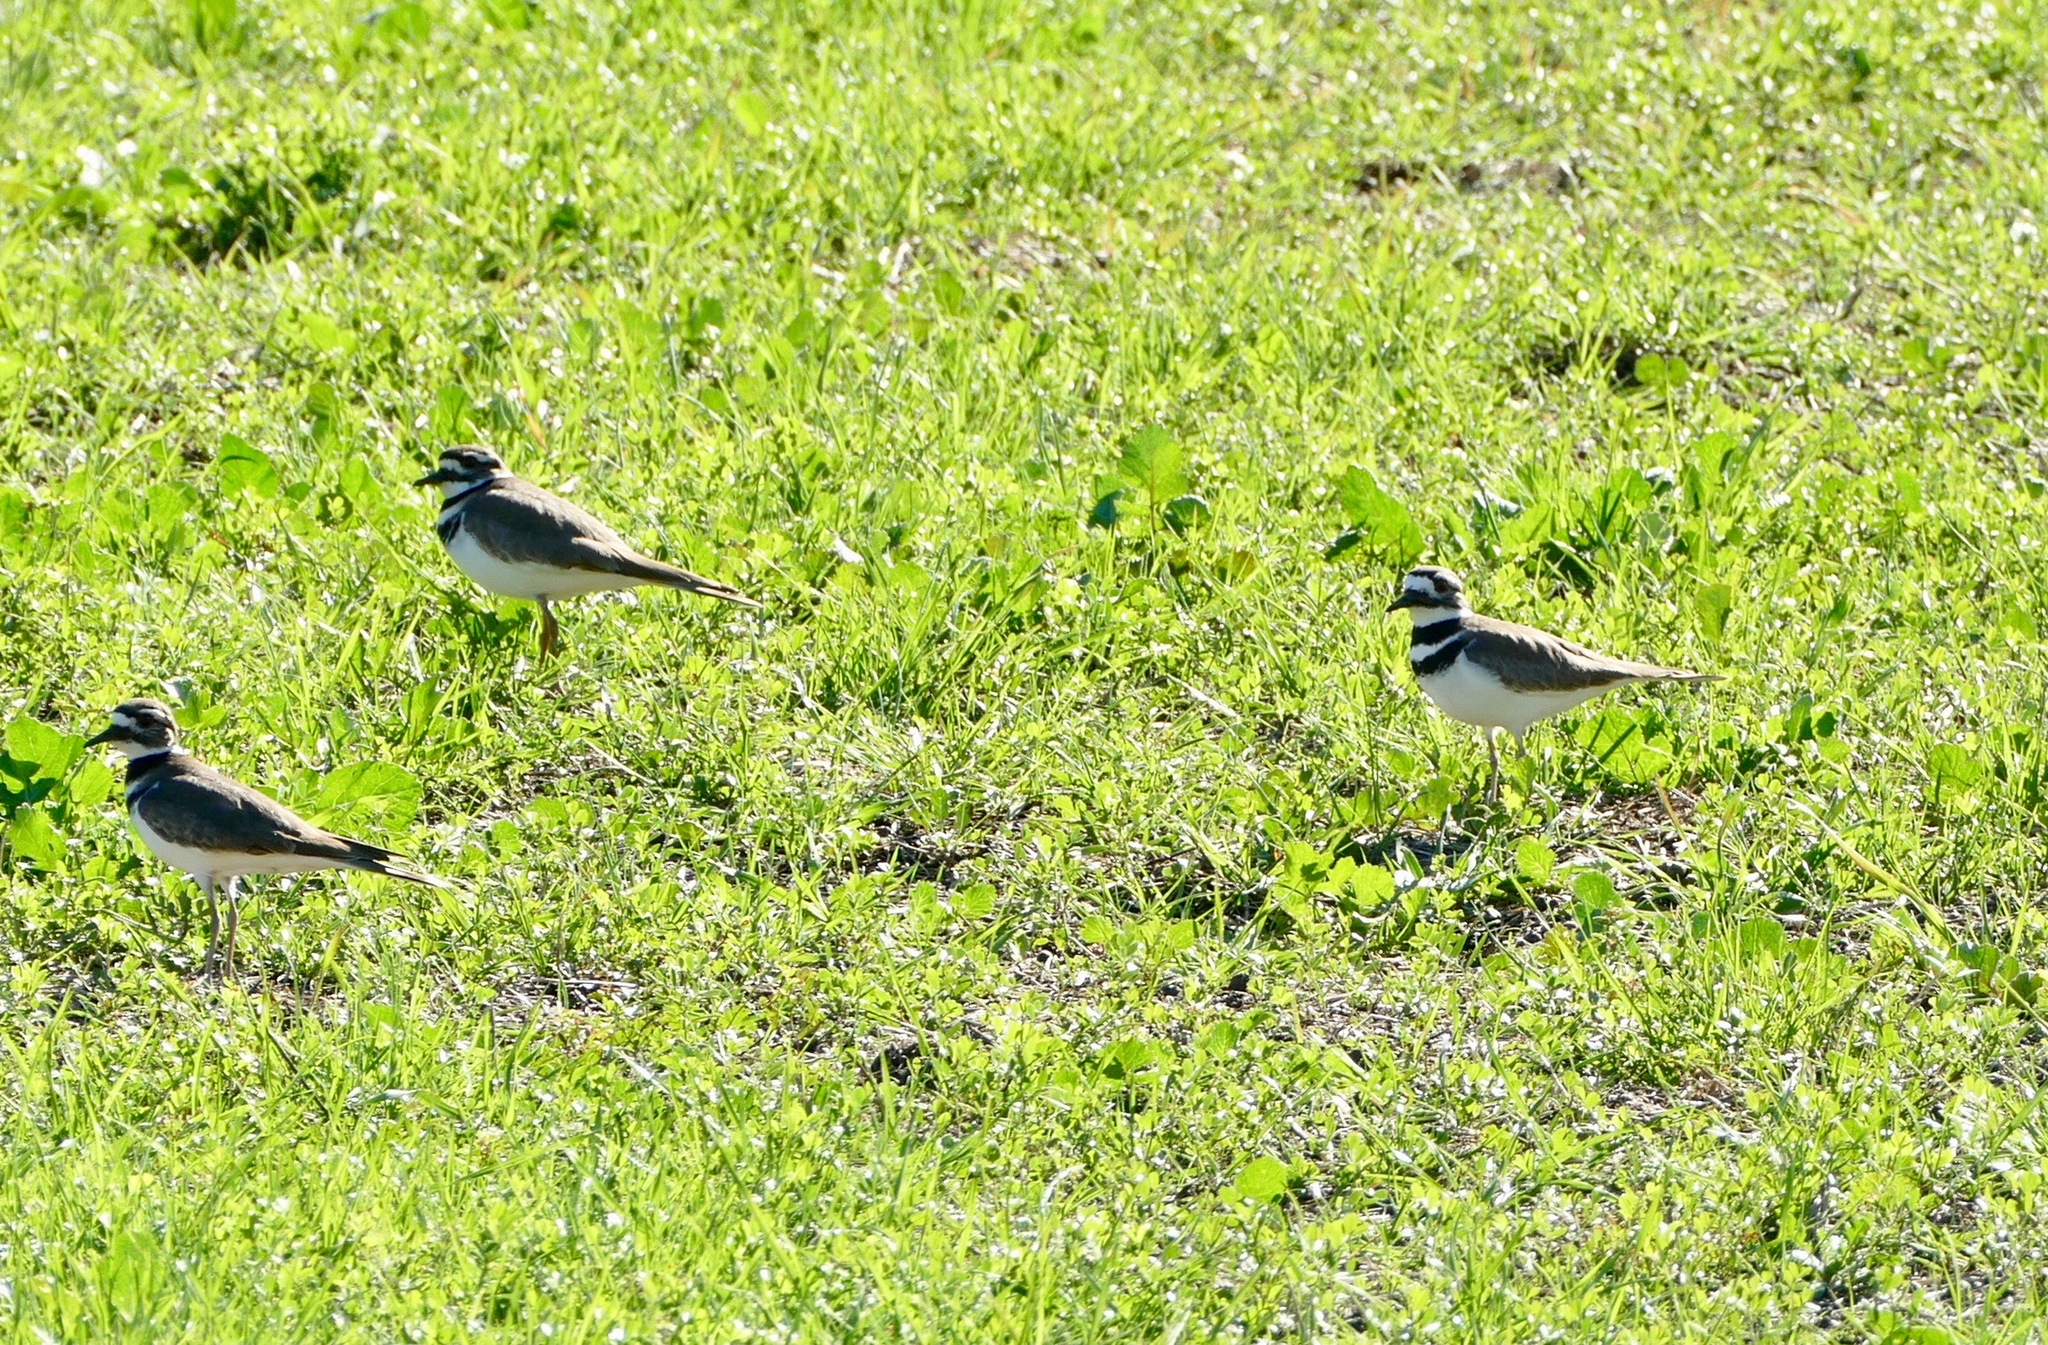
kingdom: Animalia
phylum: Chordata
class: Aves
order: Charadriiformes
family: Charadriidae
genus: Charadrius
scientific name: Charadrius vociferus
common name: Killdeer
